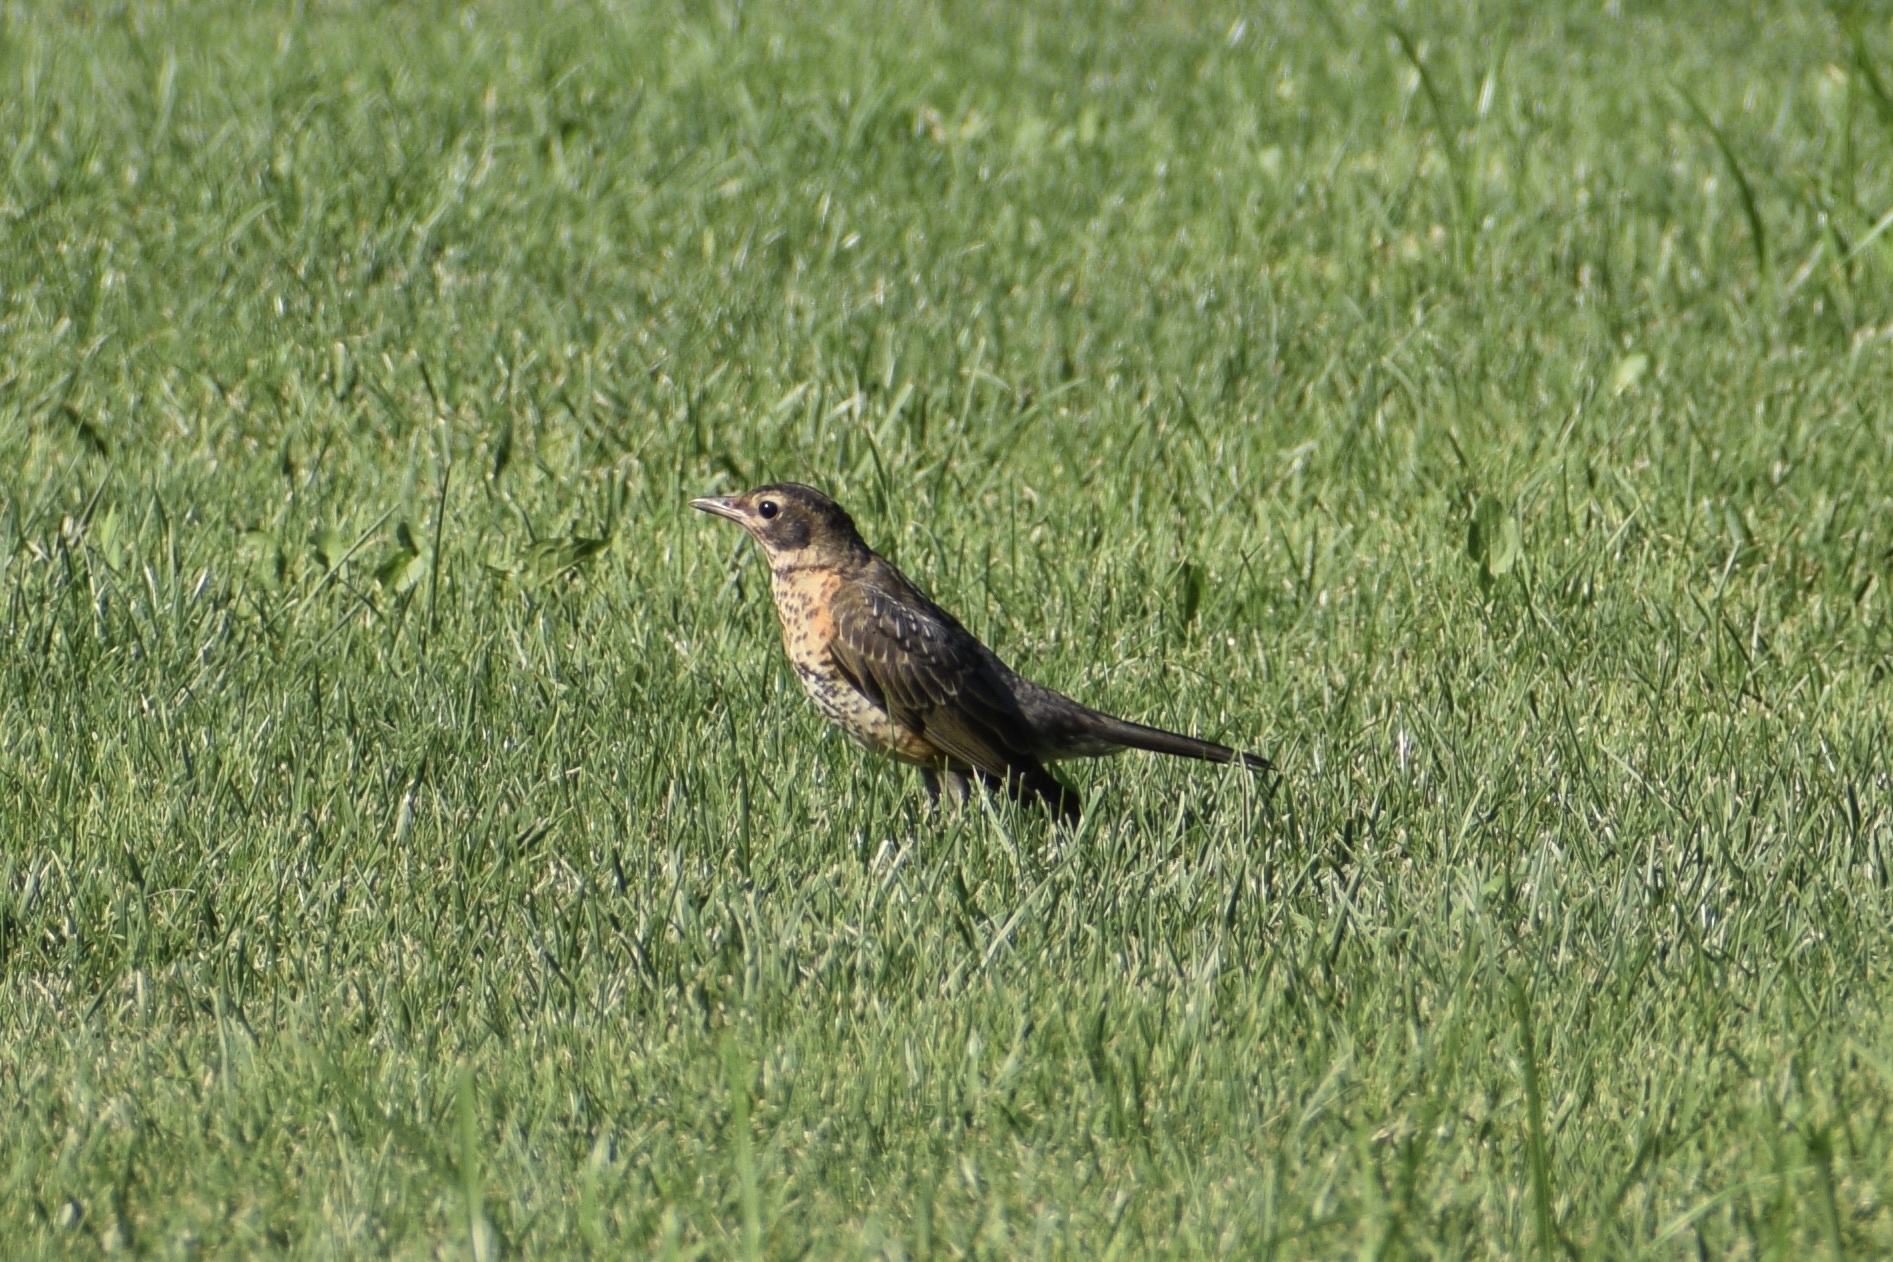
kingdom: Animalia
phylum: Chordata
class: Aves
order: Passeriformes
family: Turdidae
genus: Turdus
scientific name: Turdus migratorius
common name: American robin
